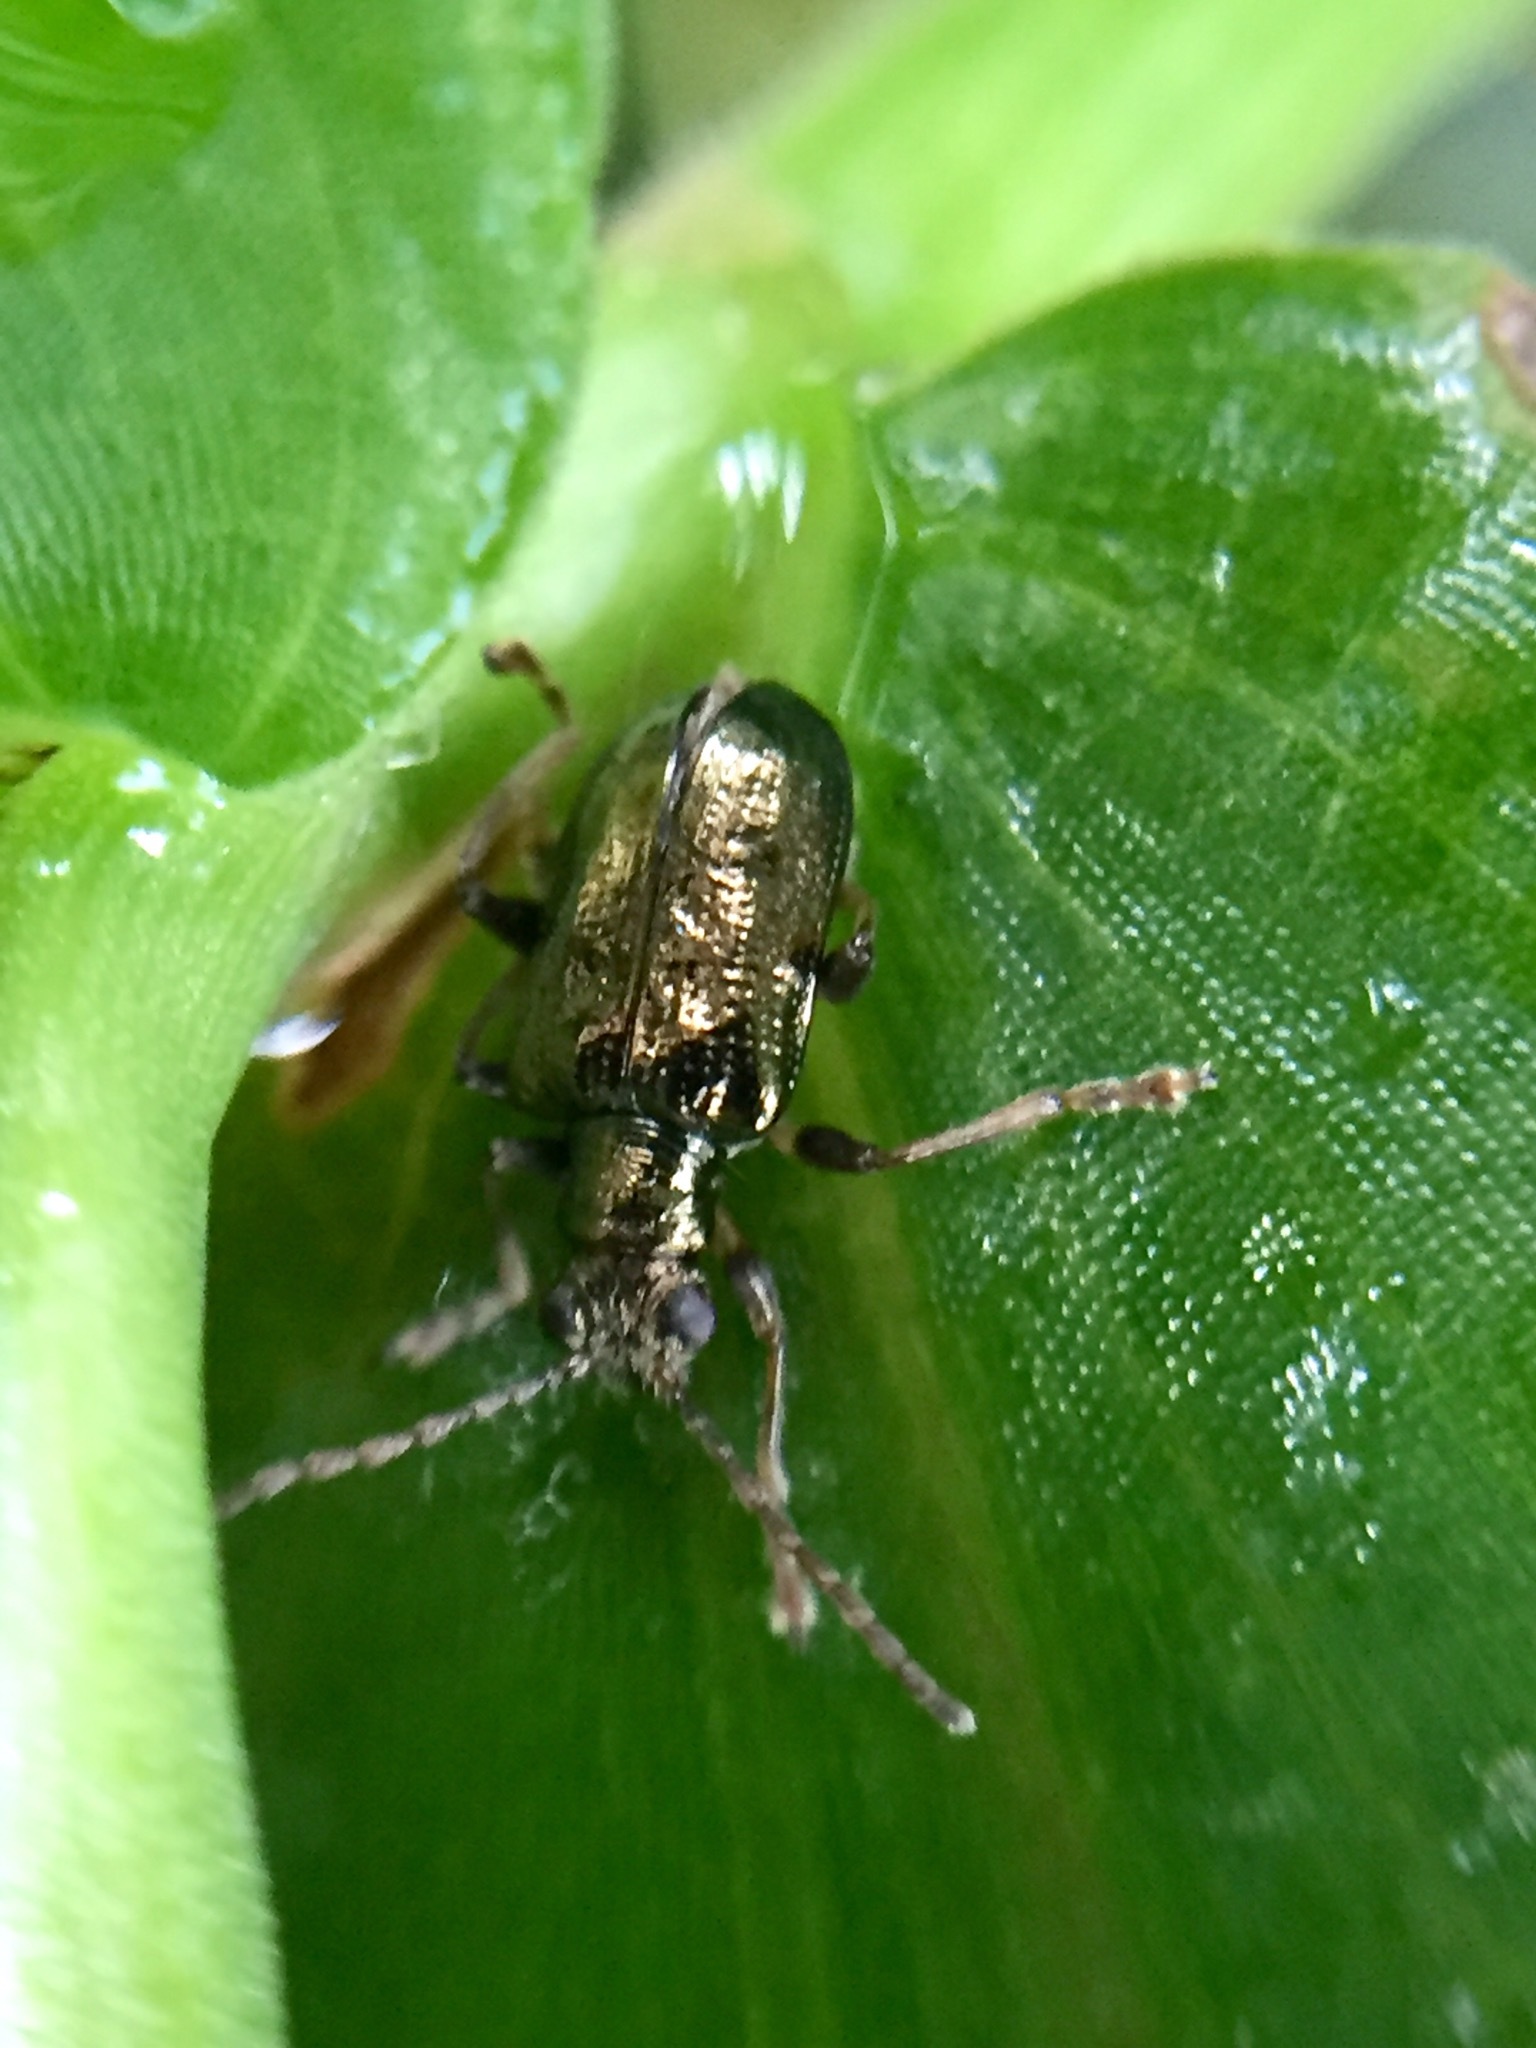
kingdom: Animalia
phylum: Arthropoda
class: Insecta
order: Coleoptera
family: Chrysomelidae
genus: Neolema
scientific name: Neolema ogloblini
